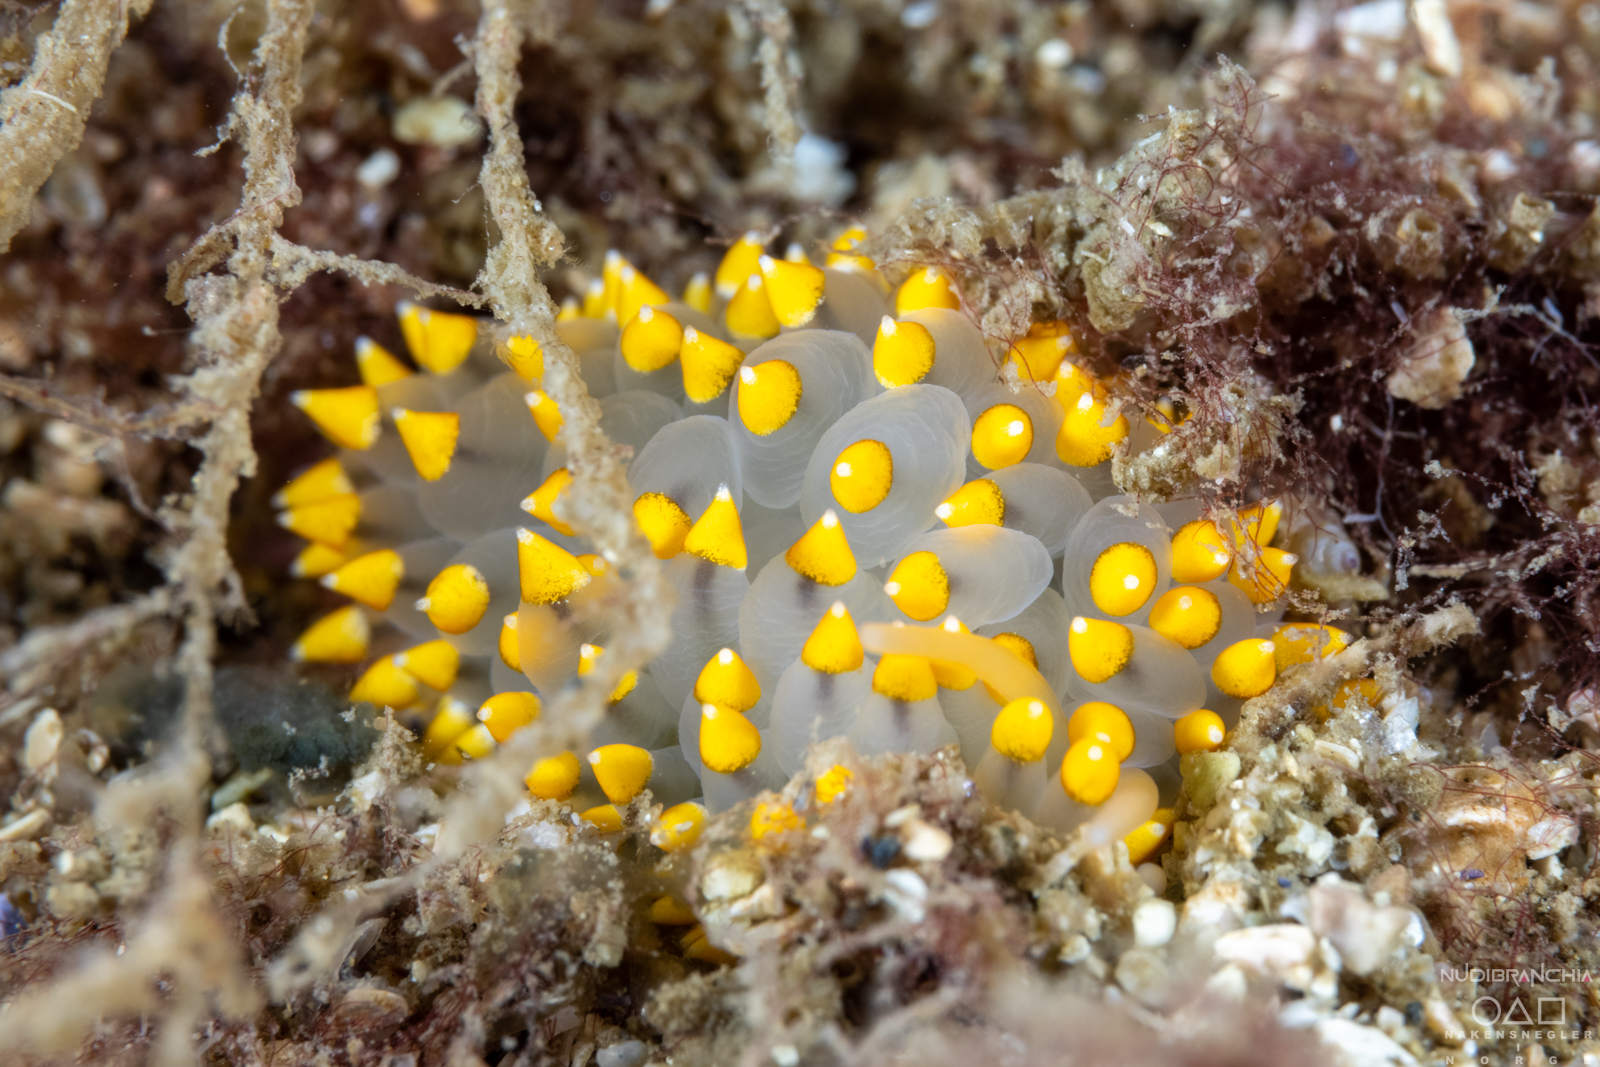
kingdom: Animalia
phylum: Mollusca
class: Gastropoda
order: Nudibranchia
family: Eubranchidae
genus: Eubranchus
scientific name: Eubranchus tricolor
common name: Painted balloon aeolis
